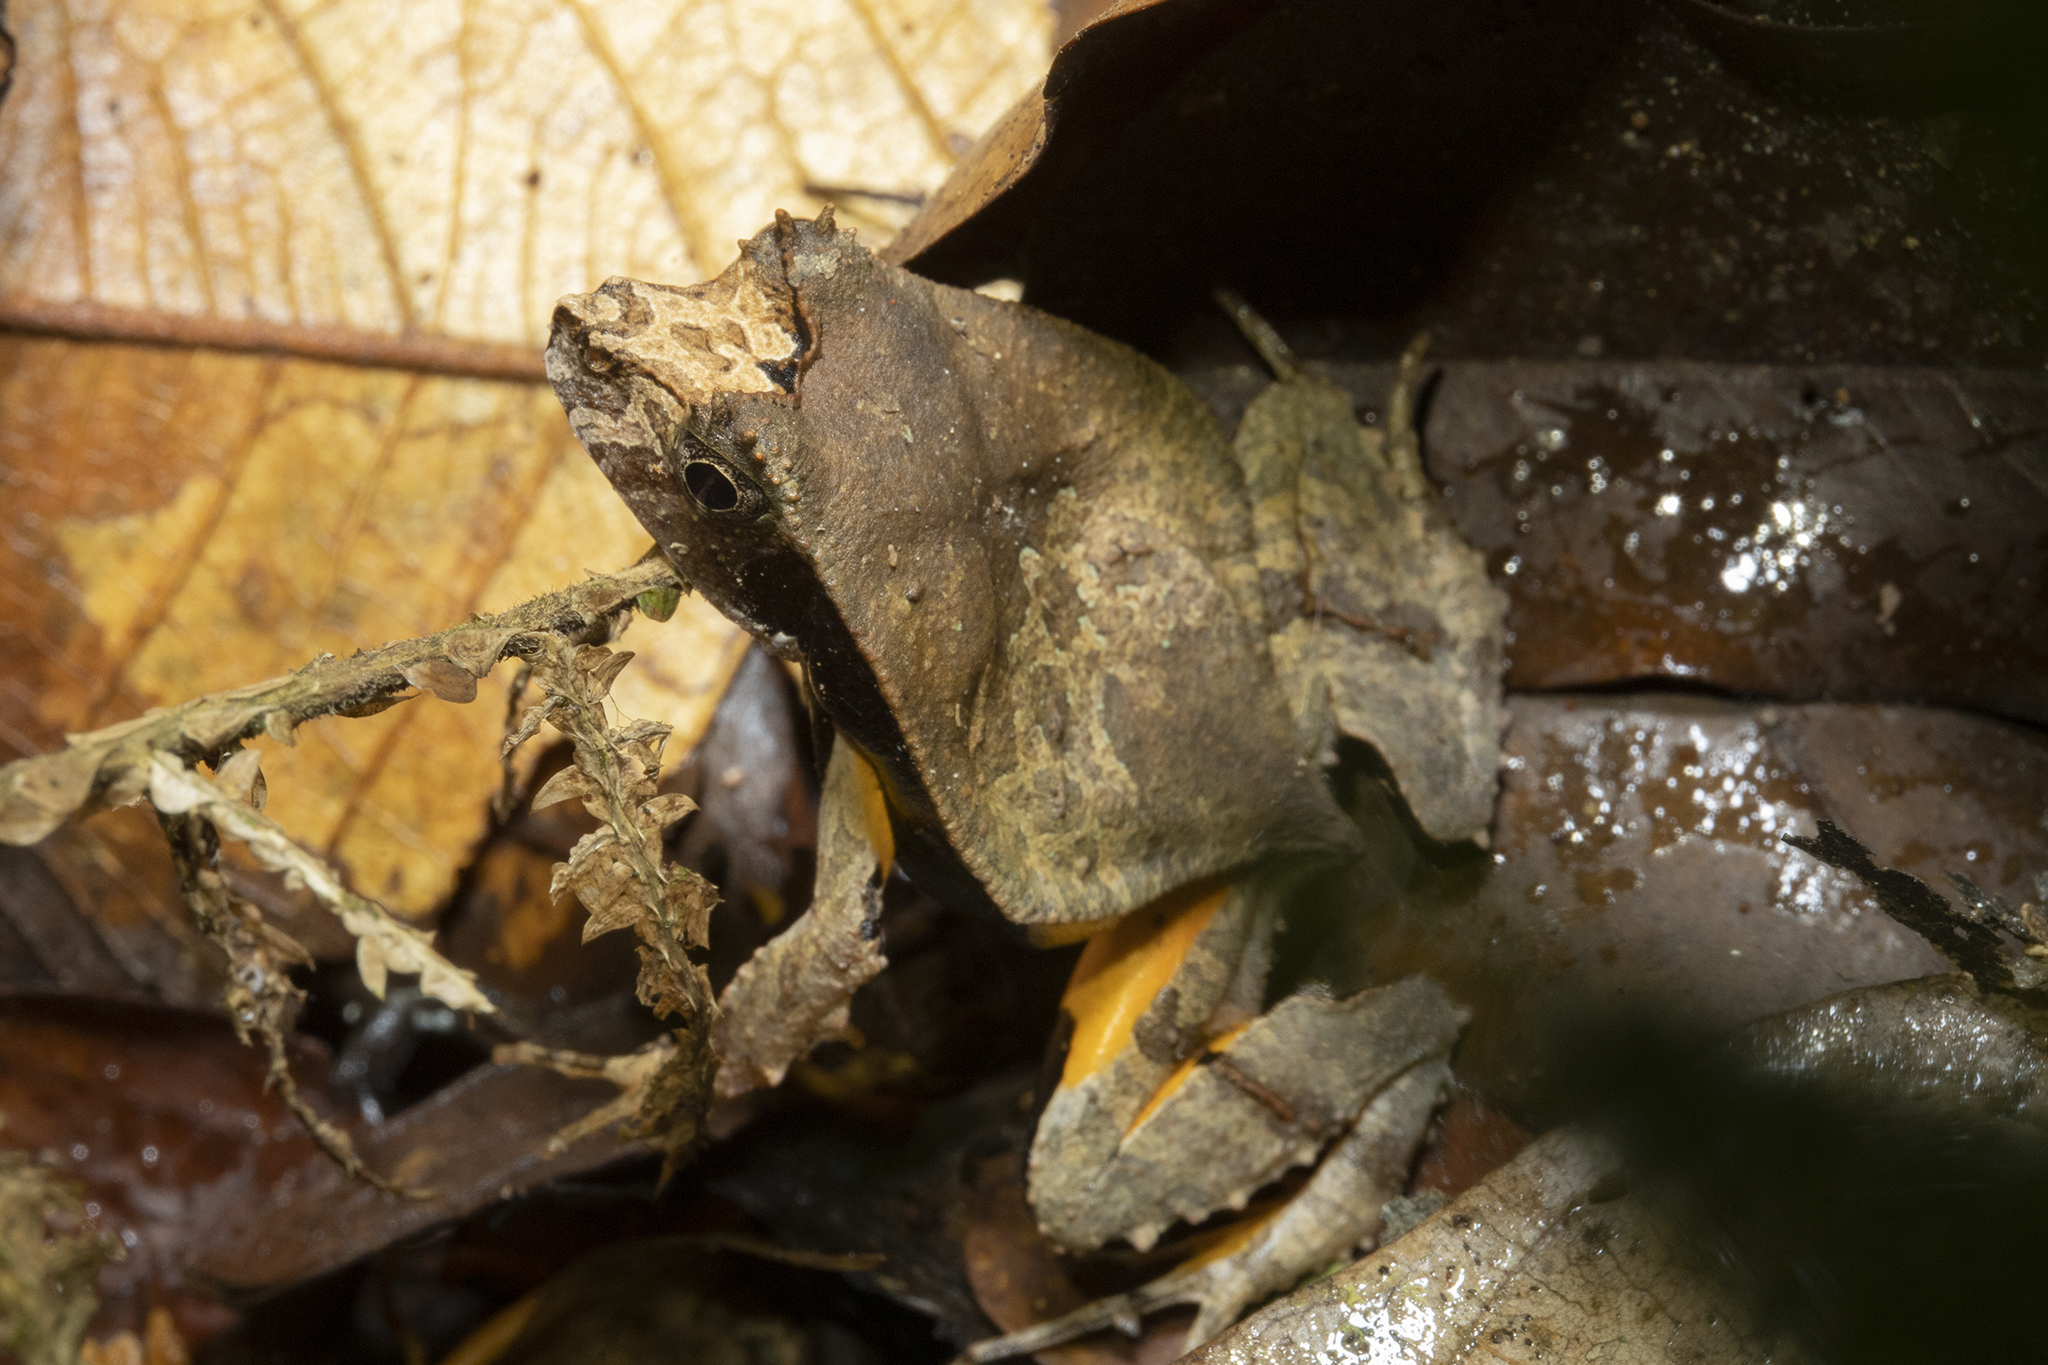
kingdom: Animalia
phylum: Chordata
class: Amphibia
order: Anura
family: Leptodactylidae
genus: Edalorhina
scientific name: Edalorhina perezi
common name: Perez’s snouted frog
